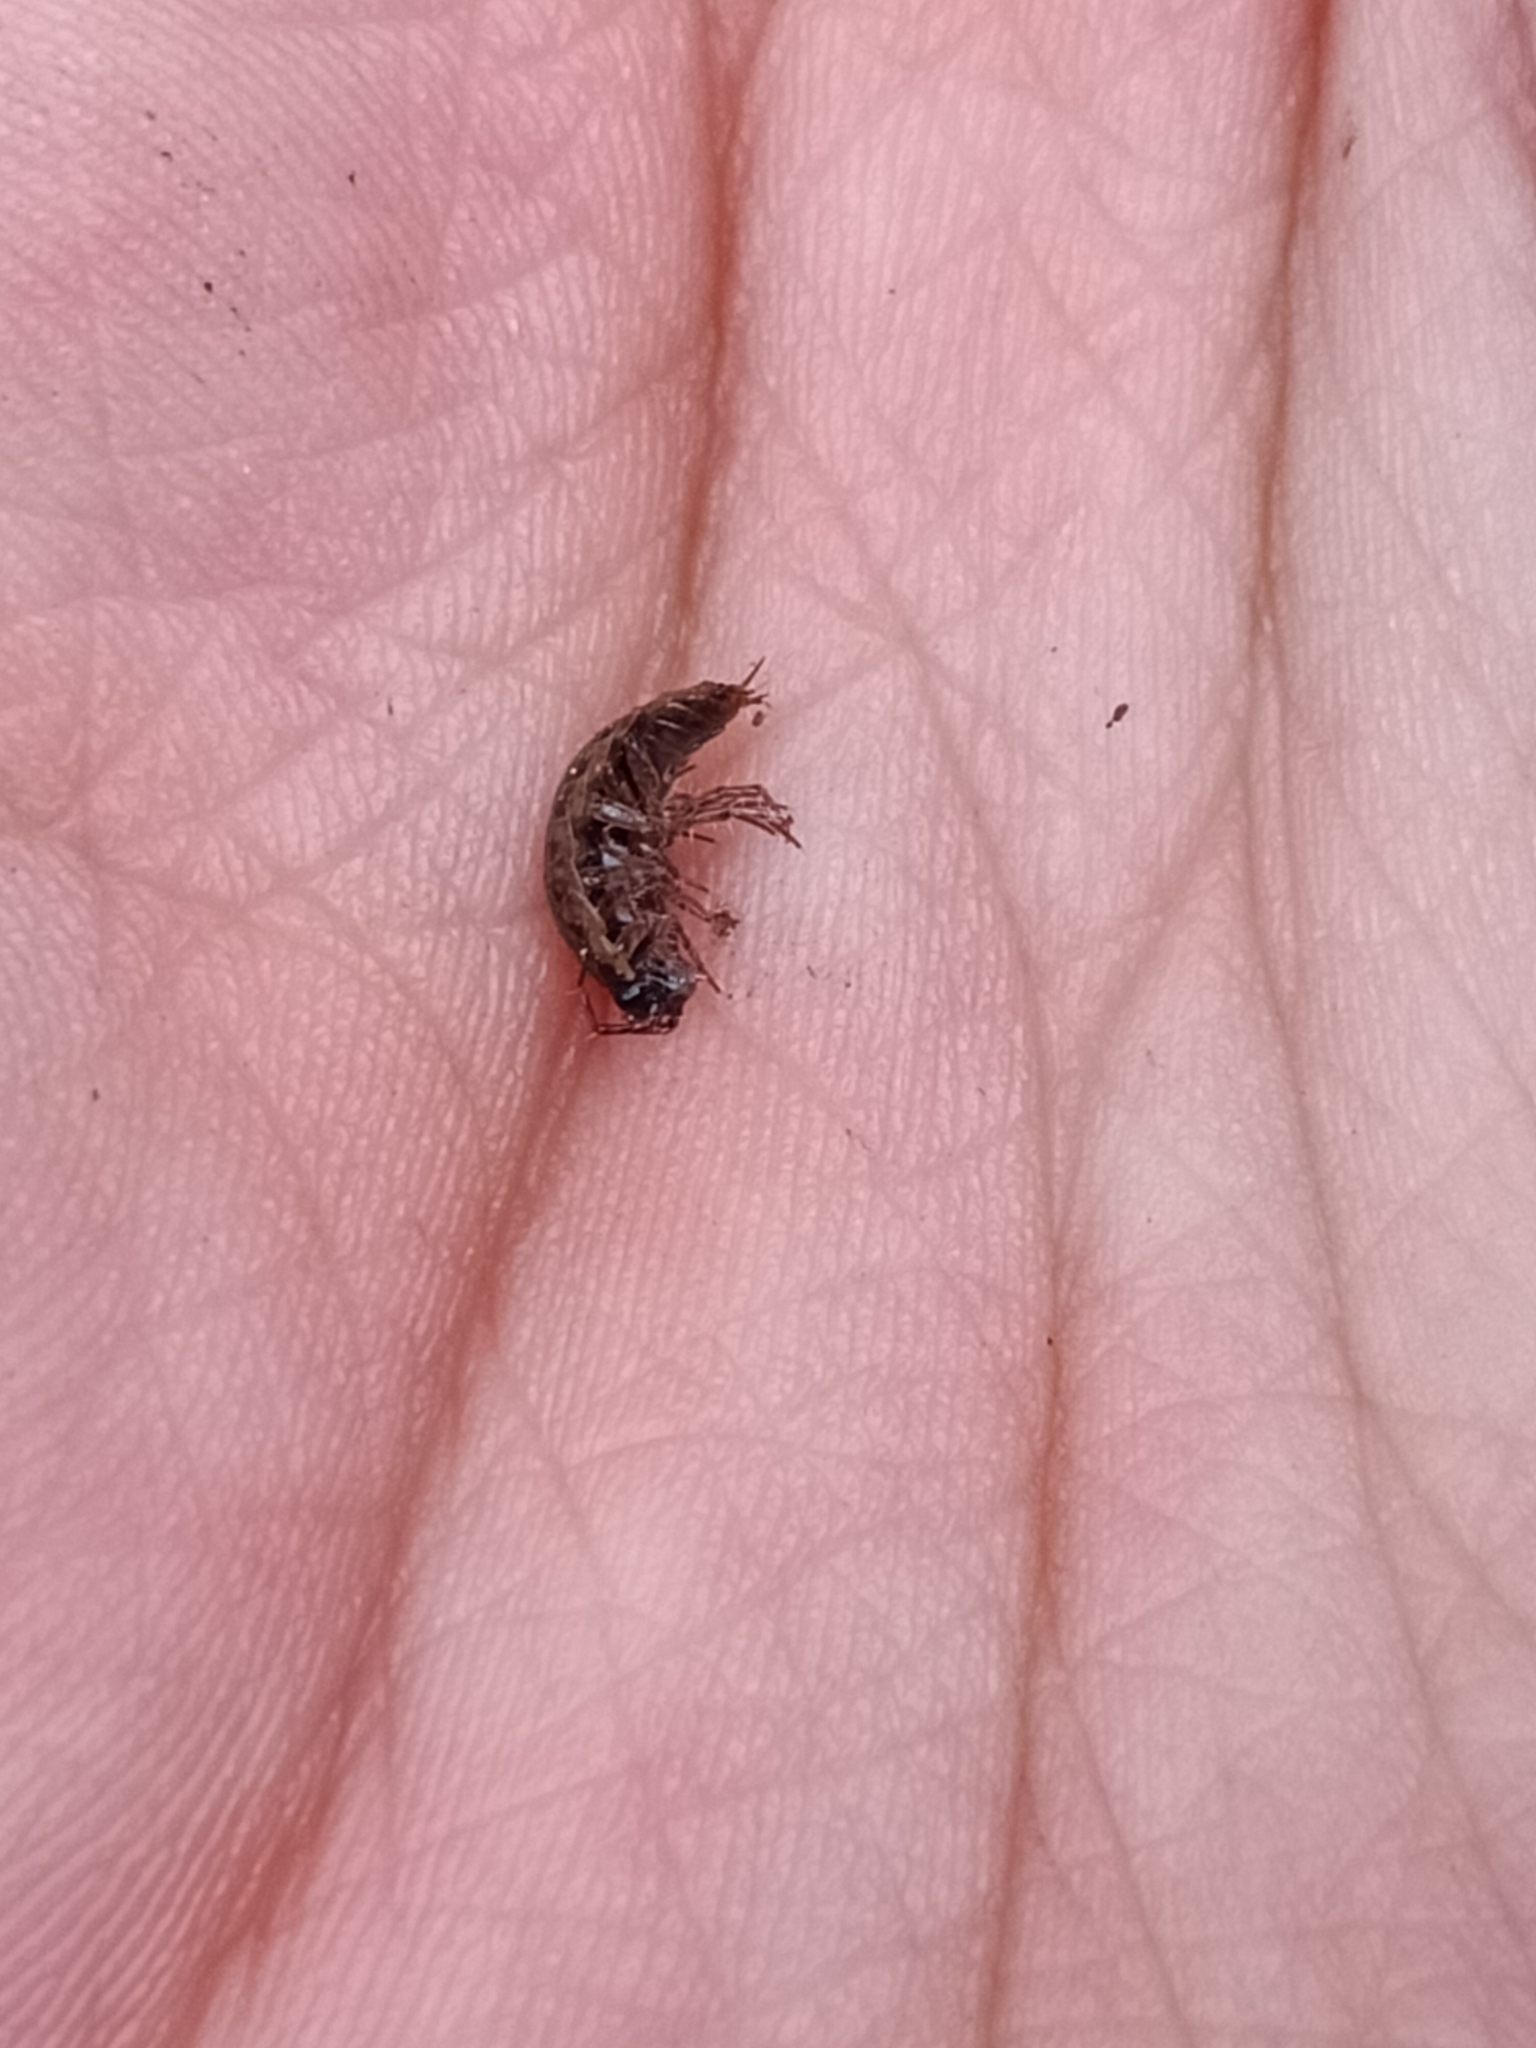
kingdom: Animalia
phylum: Arthropoda
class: Malacostraca
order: Isopoda
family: Ligiidae
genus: Ligidium
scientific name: Ligidium hypnorum
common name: Moss slater
